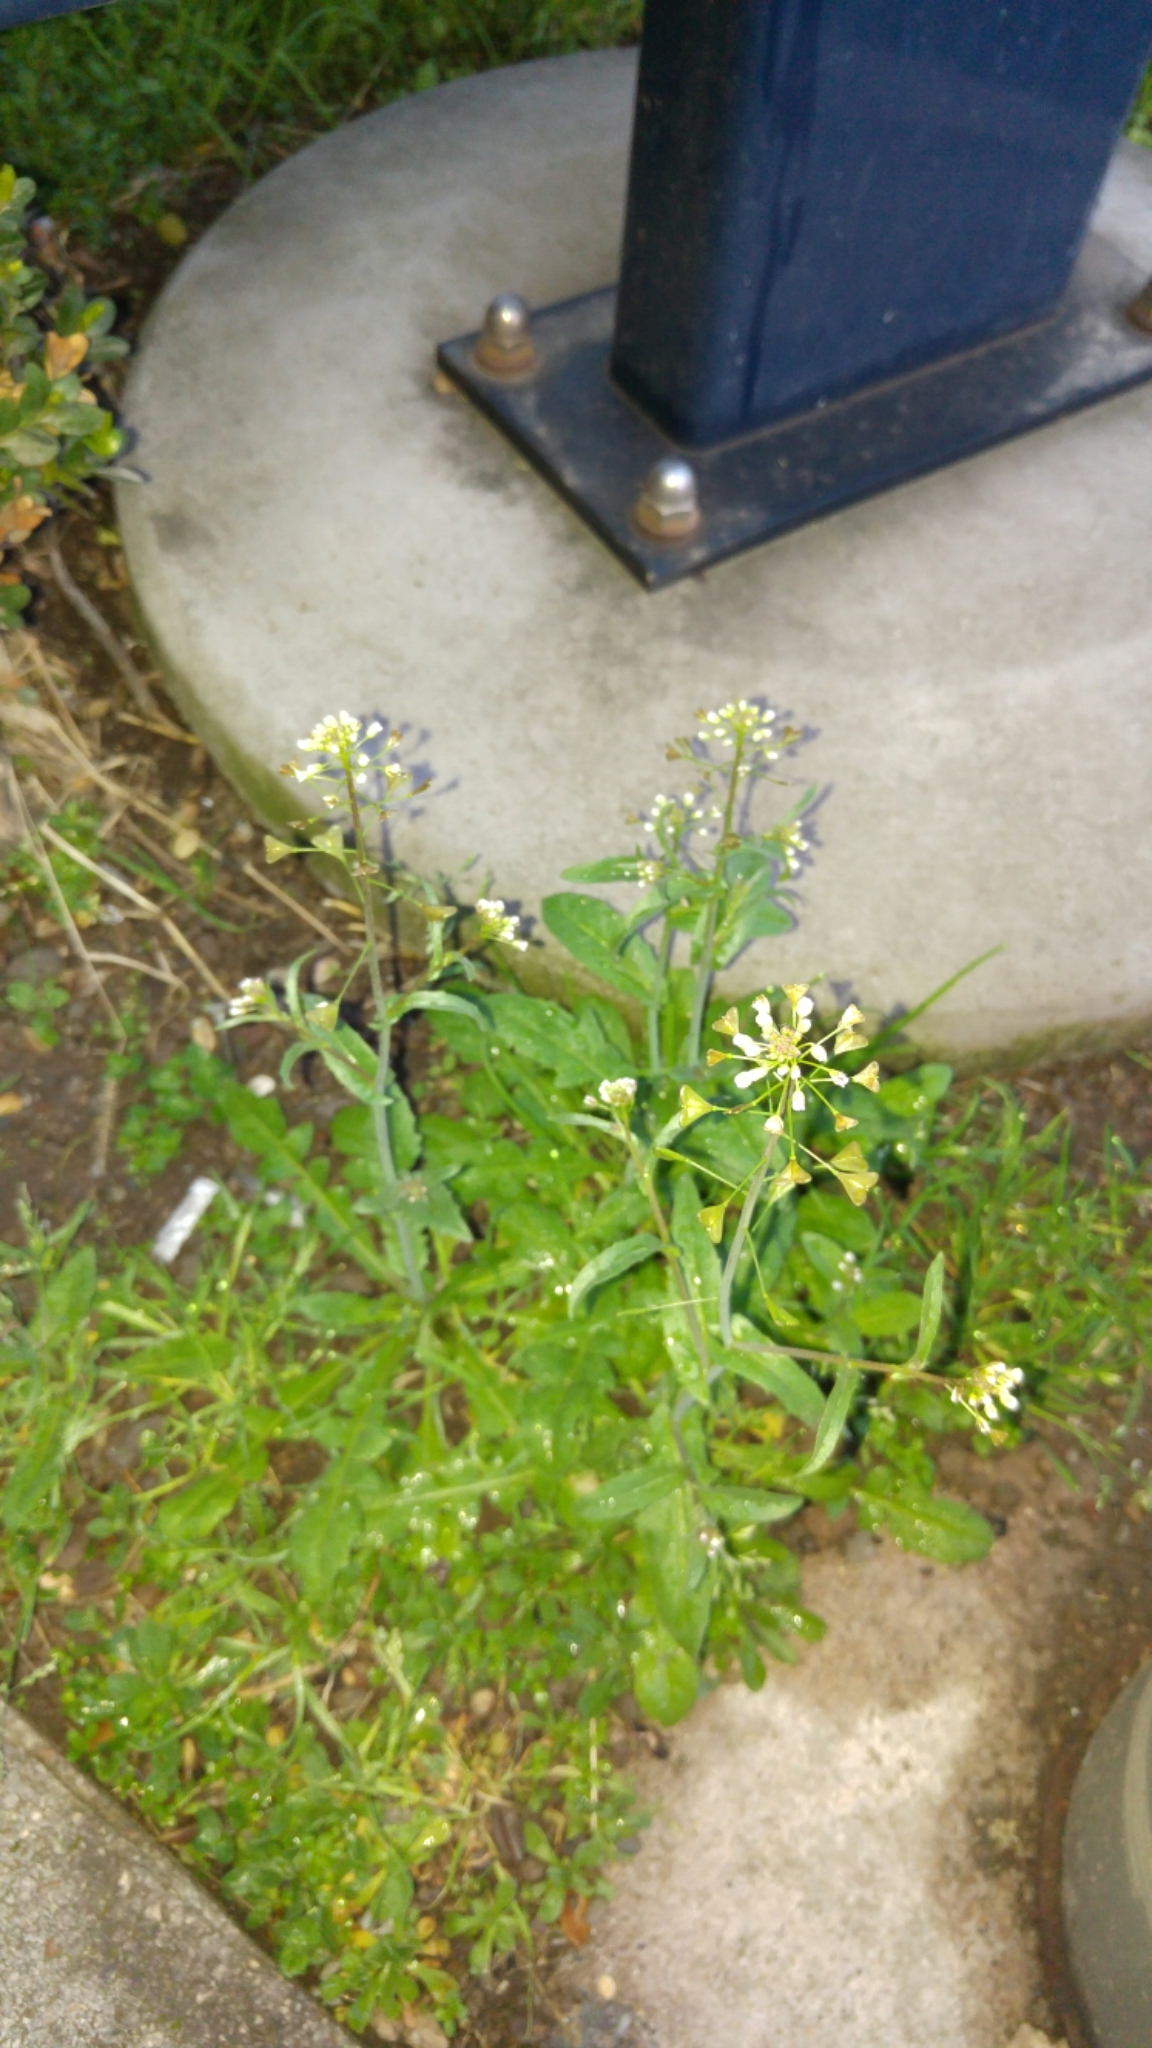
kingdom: Plantae
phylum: Tracheophyta
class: Magnoliopsida
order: Brassicales
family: Brassicaceae
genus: Capsella
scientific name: Capsella bursa-pastoris
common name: Shepherd's purse
